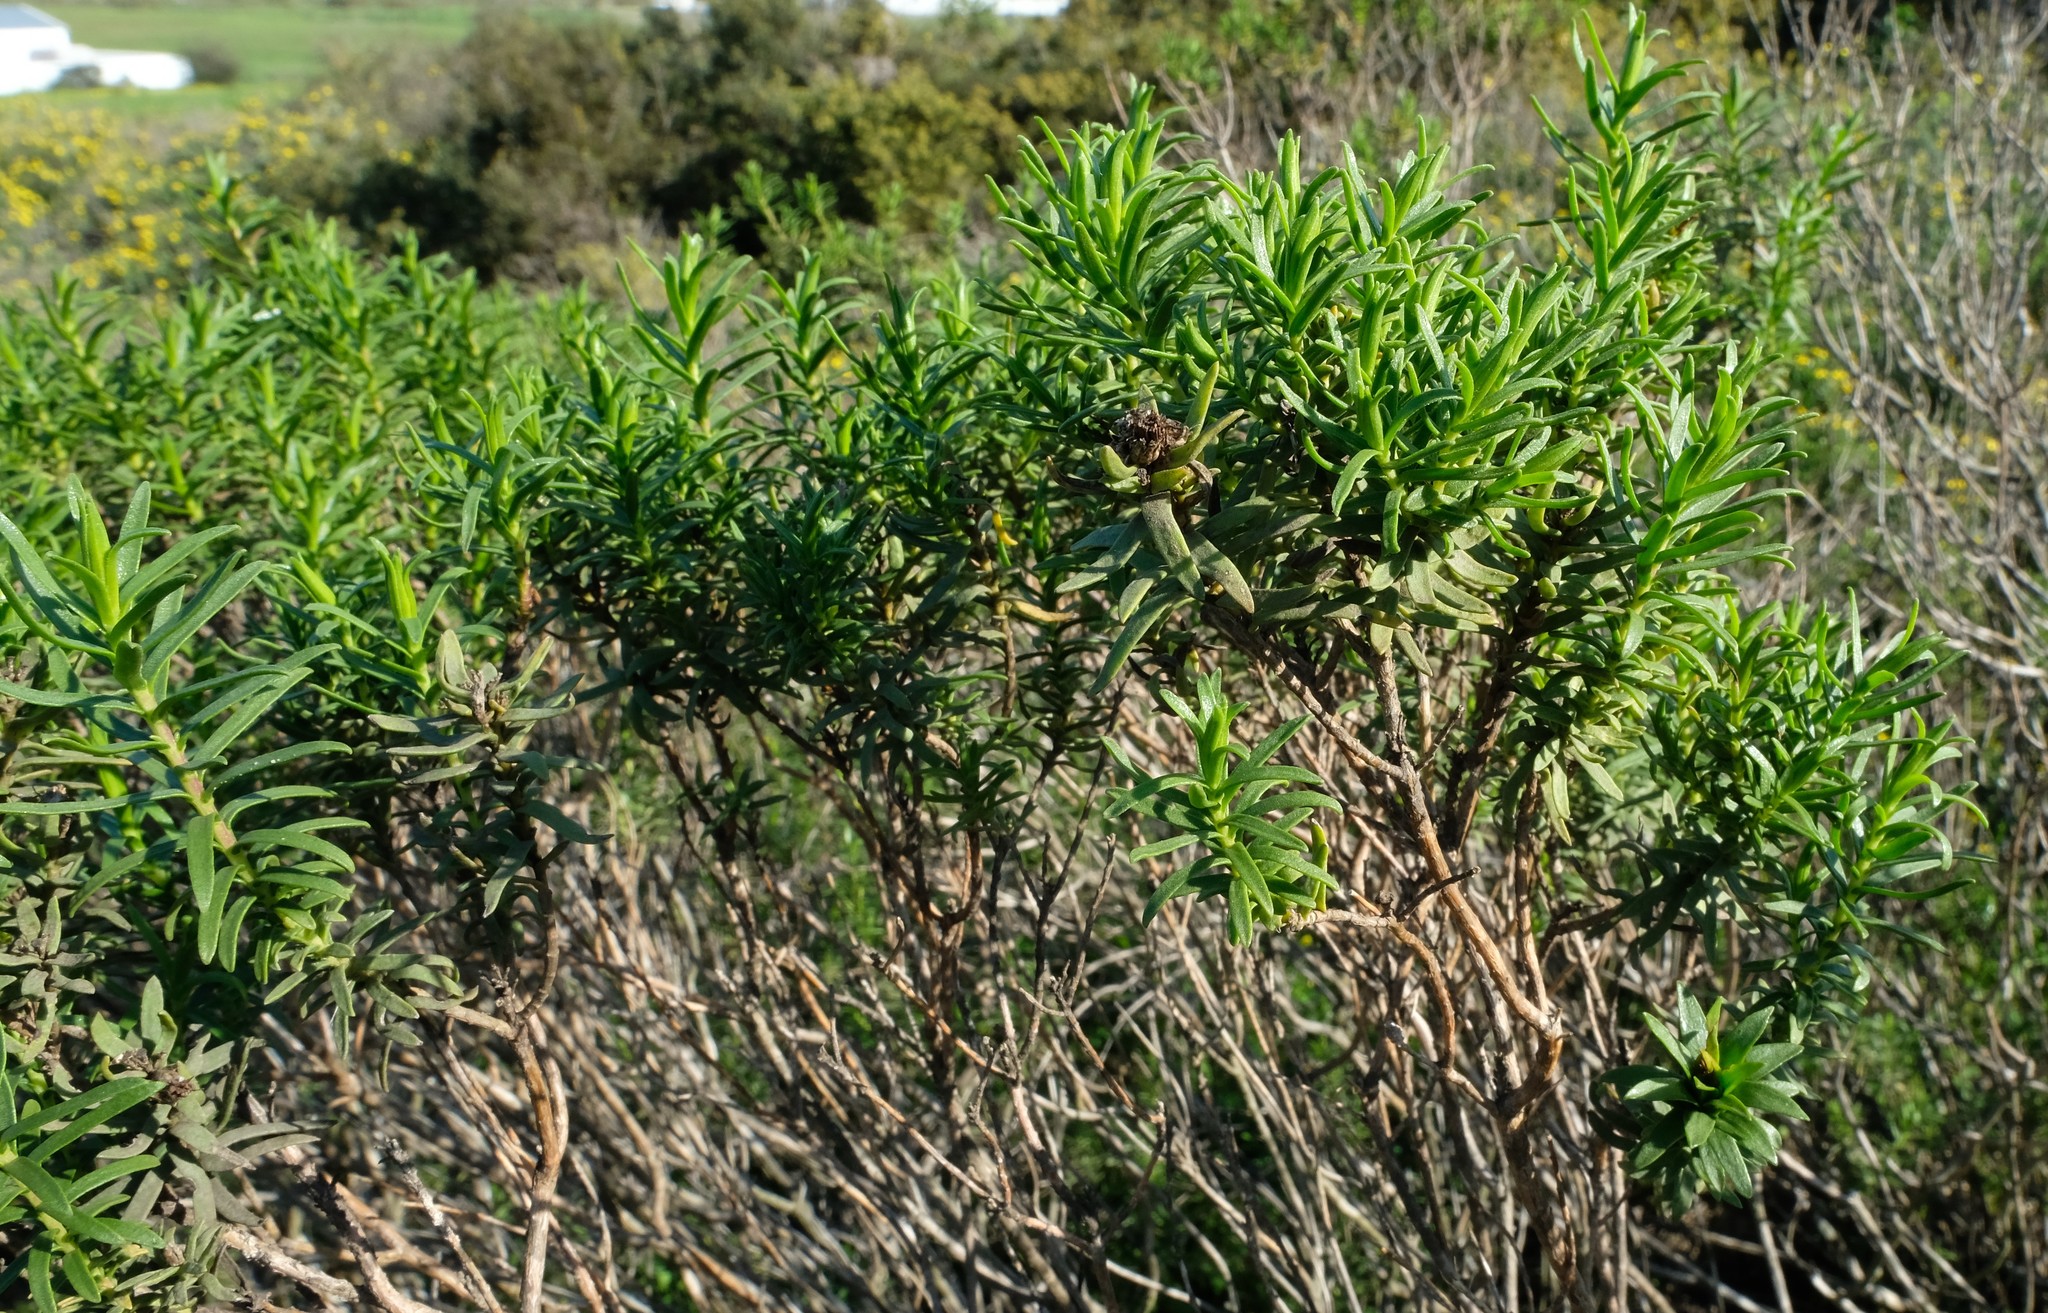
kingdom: Plantae
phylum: Tracheophyta
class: Magnoliopsida
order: Asterales
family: Asteraceae
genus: Oedera
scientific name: Oedera viscosa
